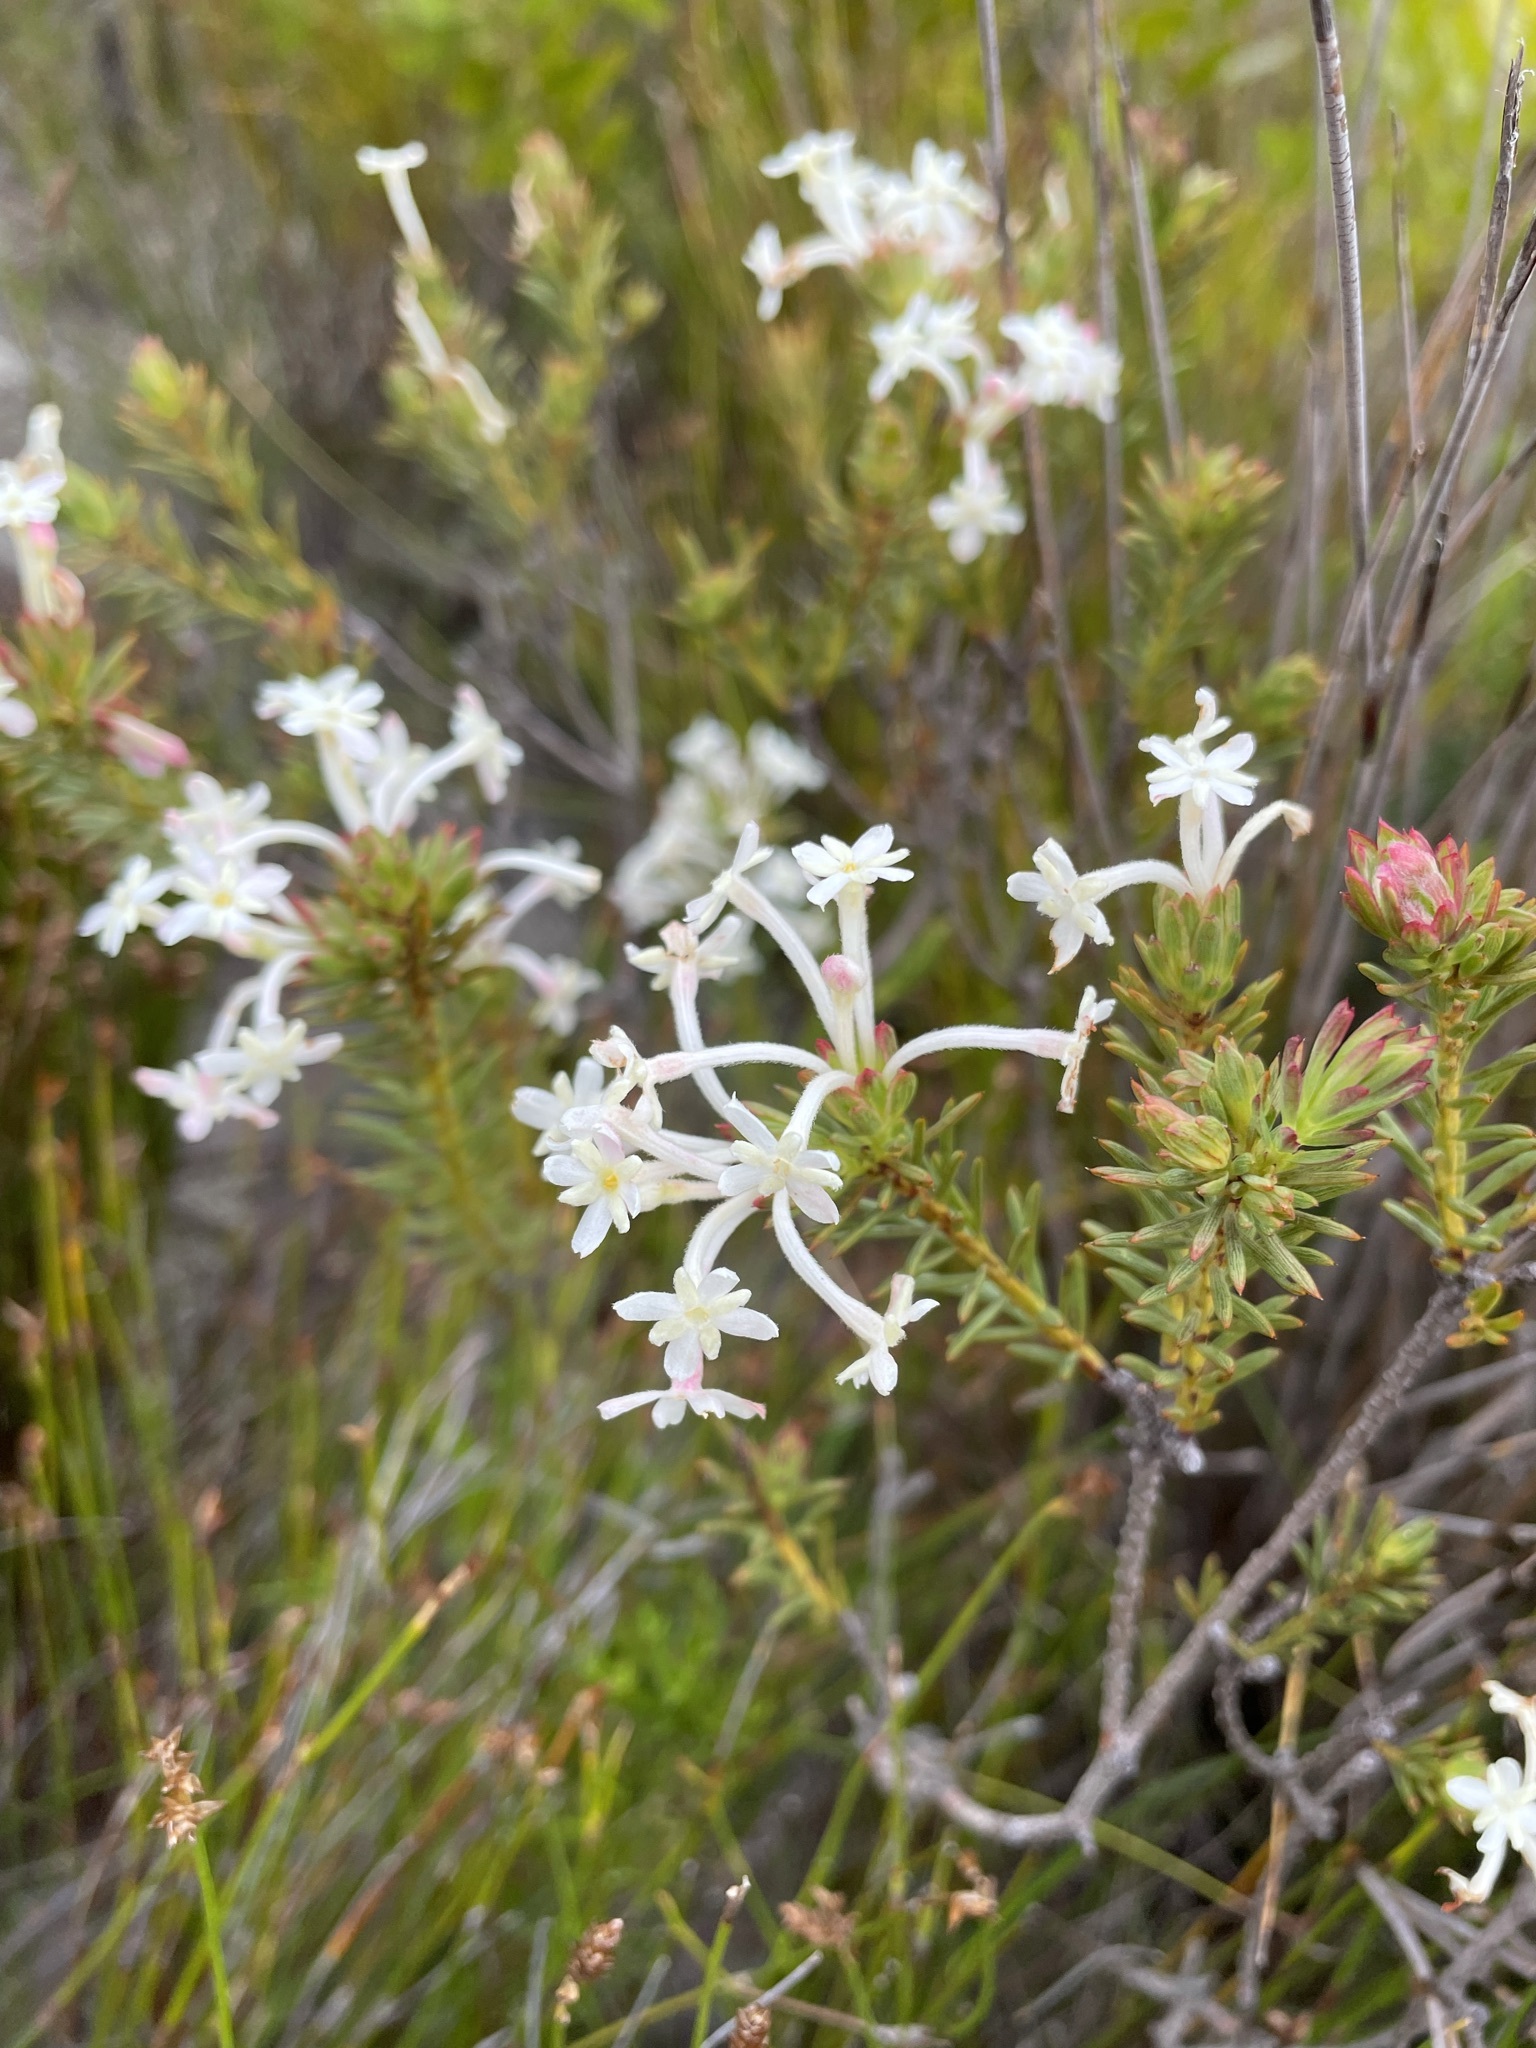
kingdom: Plantae
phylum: Tracheophyta
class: Magnoliopsida
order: Malvales
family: Thymelaeaceae
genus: Gnidia
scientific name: Gnidia pinifolia
